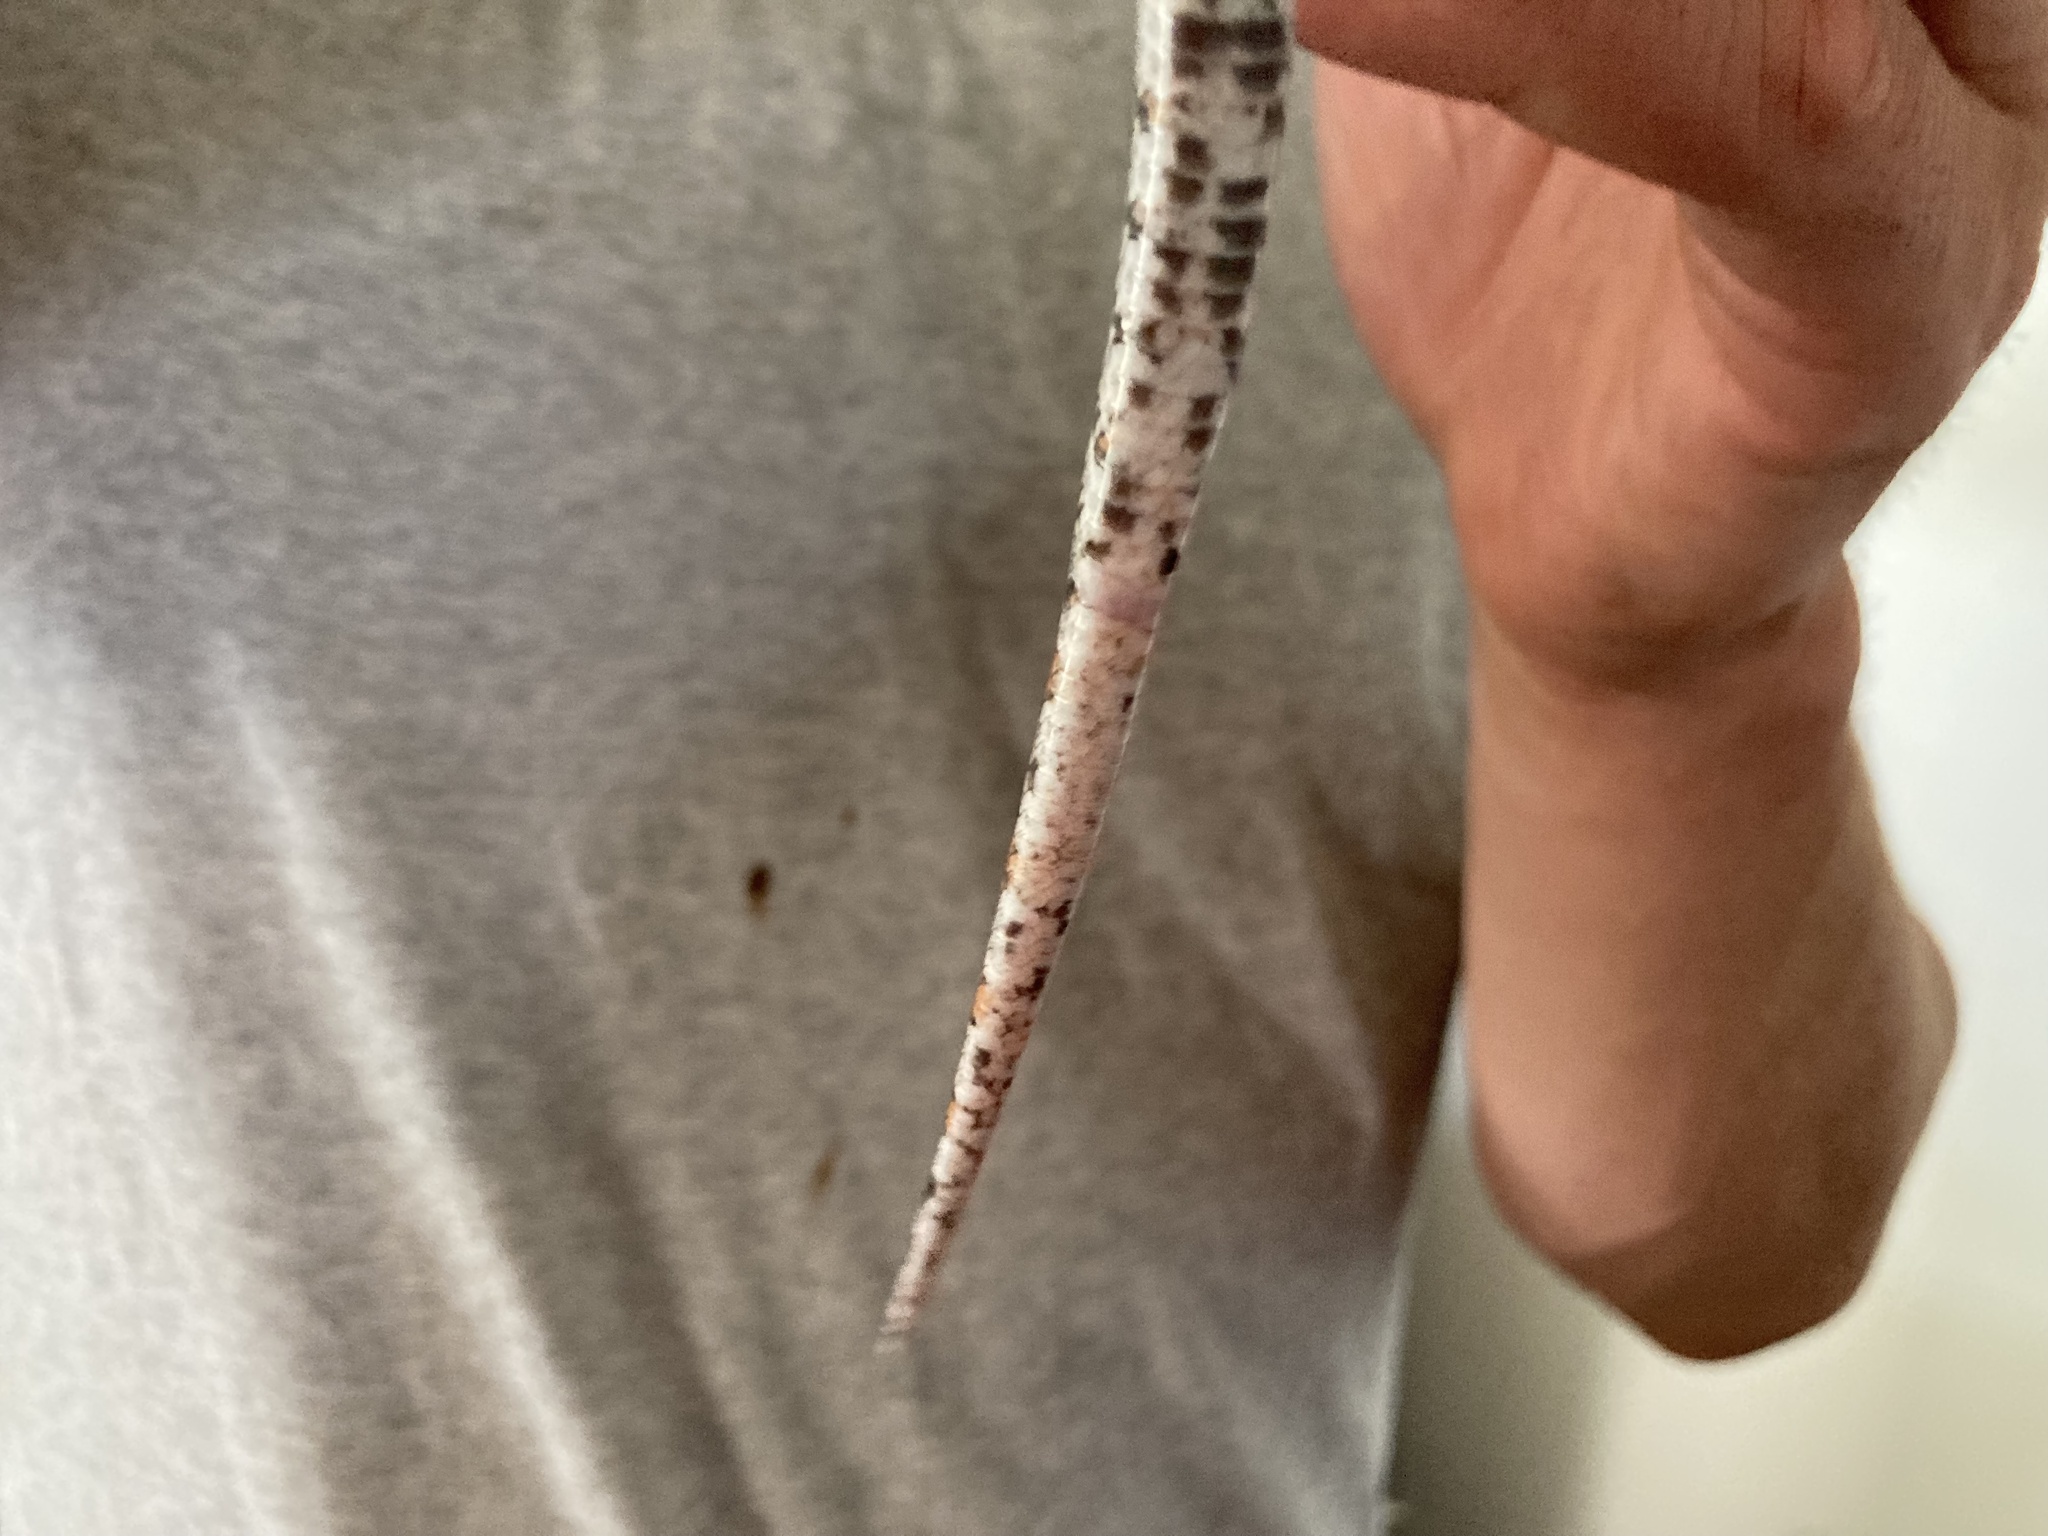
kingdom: Animalia
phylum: Chordata
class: Squamata
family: Colubridae
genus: Lampropeltis
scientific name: Lampropeltis triangulum
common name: Eastern milksnake
